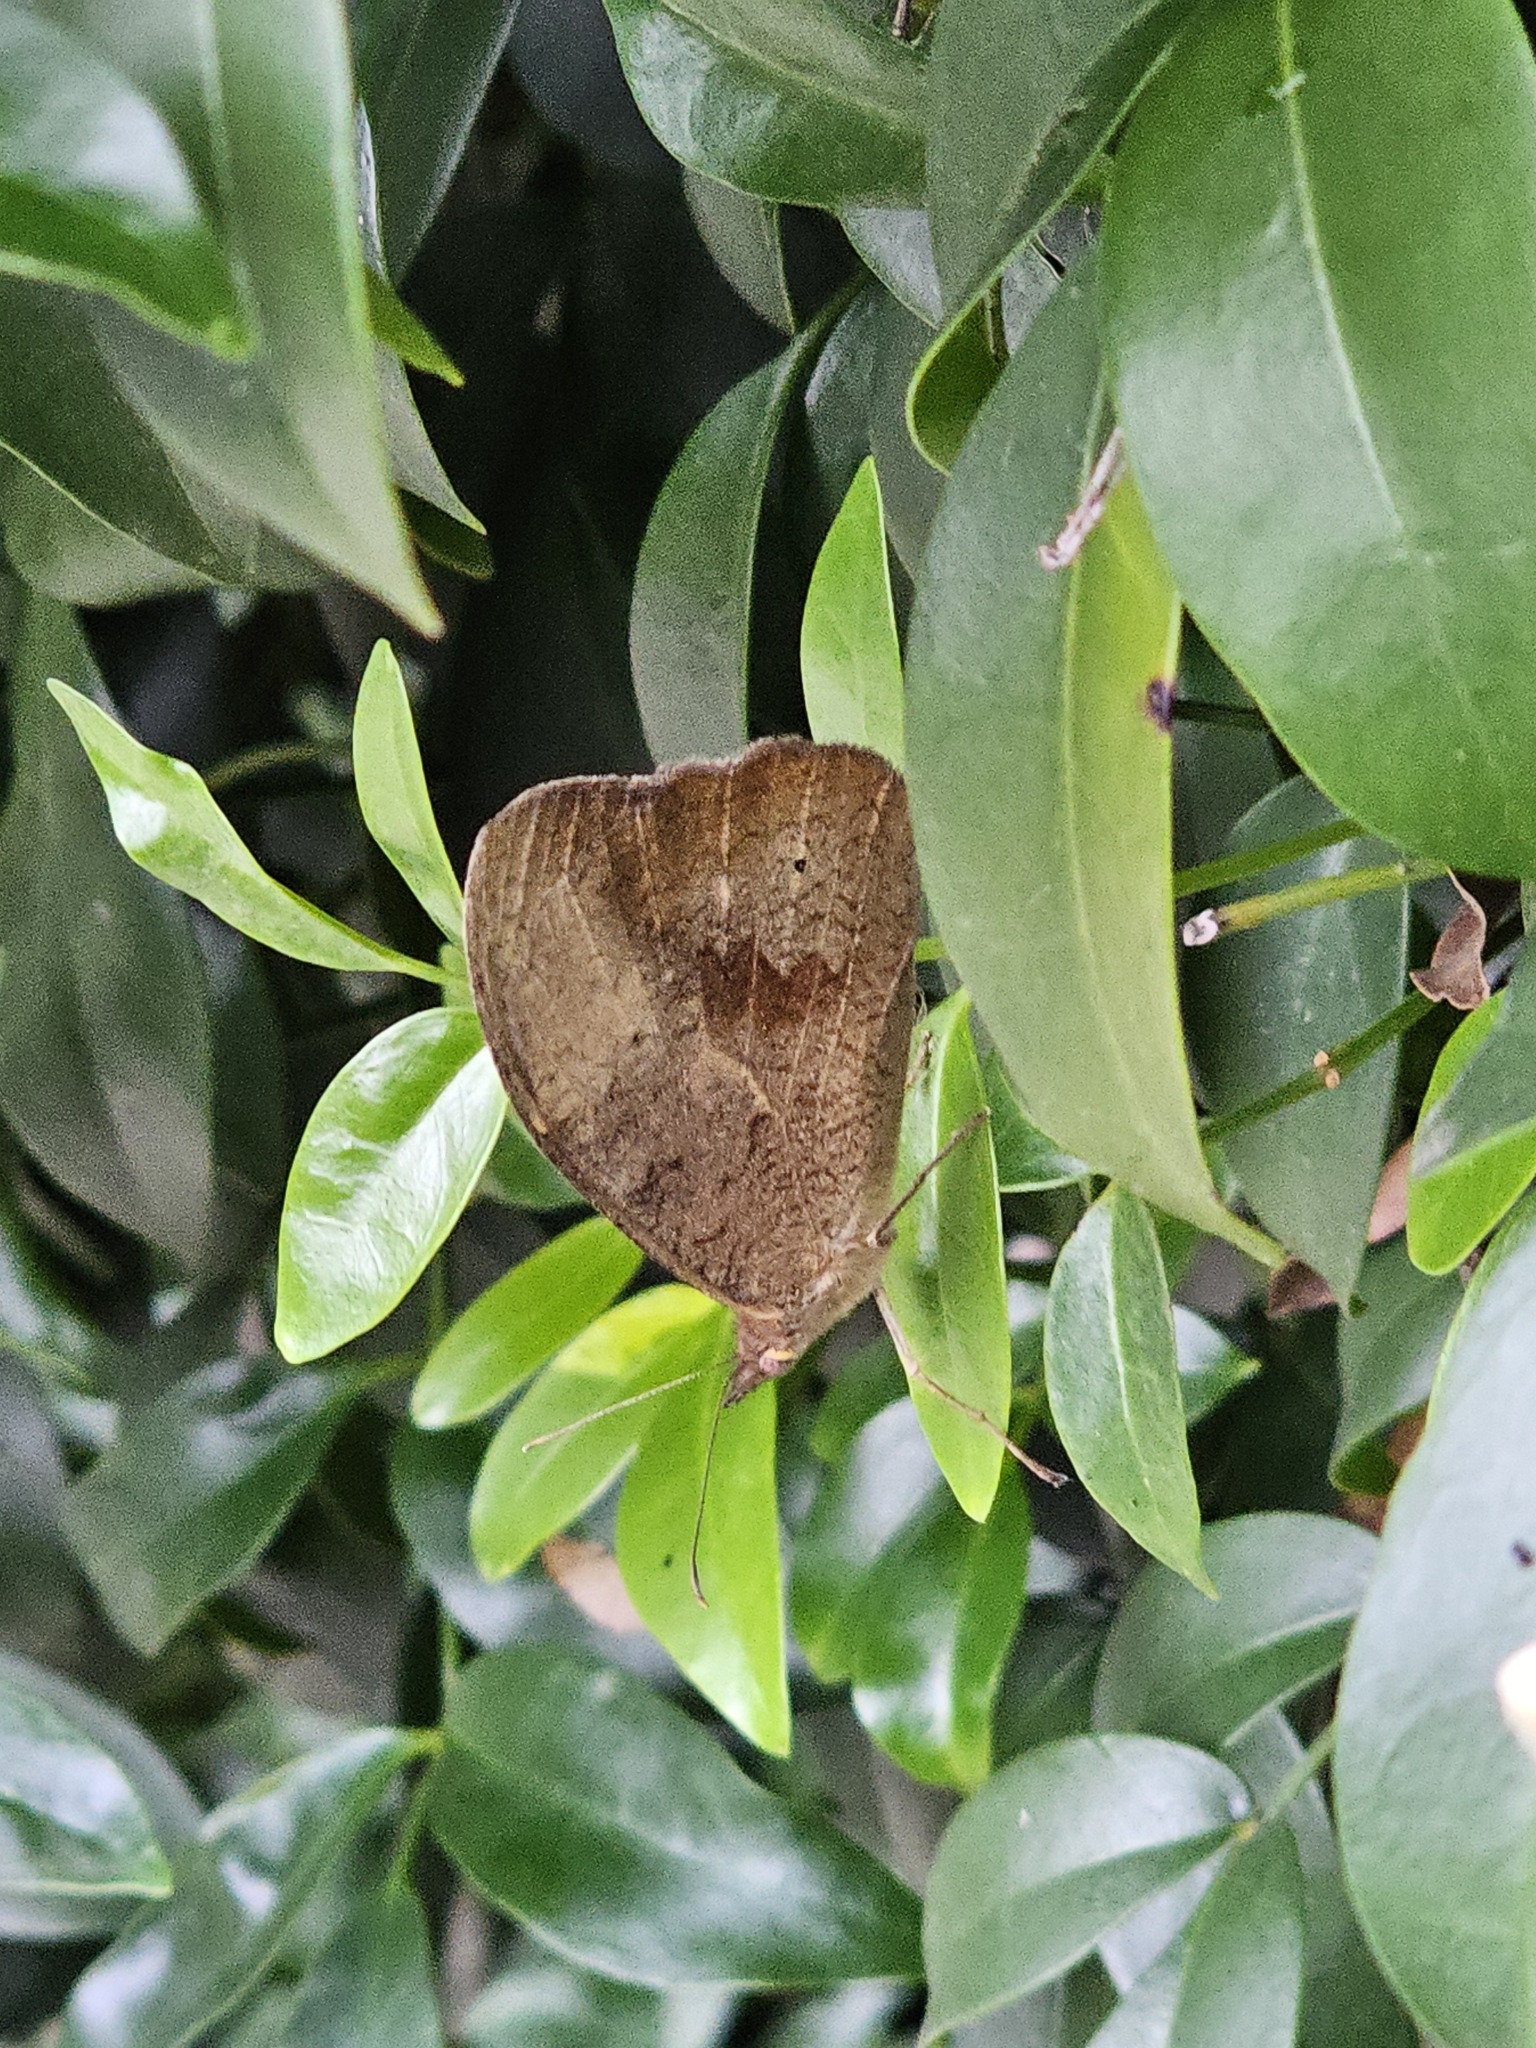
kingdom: Animalia
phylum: Arthropoda
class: Insecta
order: Lepidoptera
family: Nymphalidae
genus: Heteronympha
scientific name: Heteronympha merope
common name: Common brown
